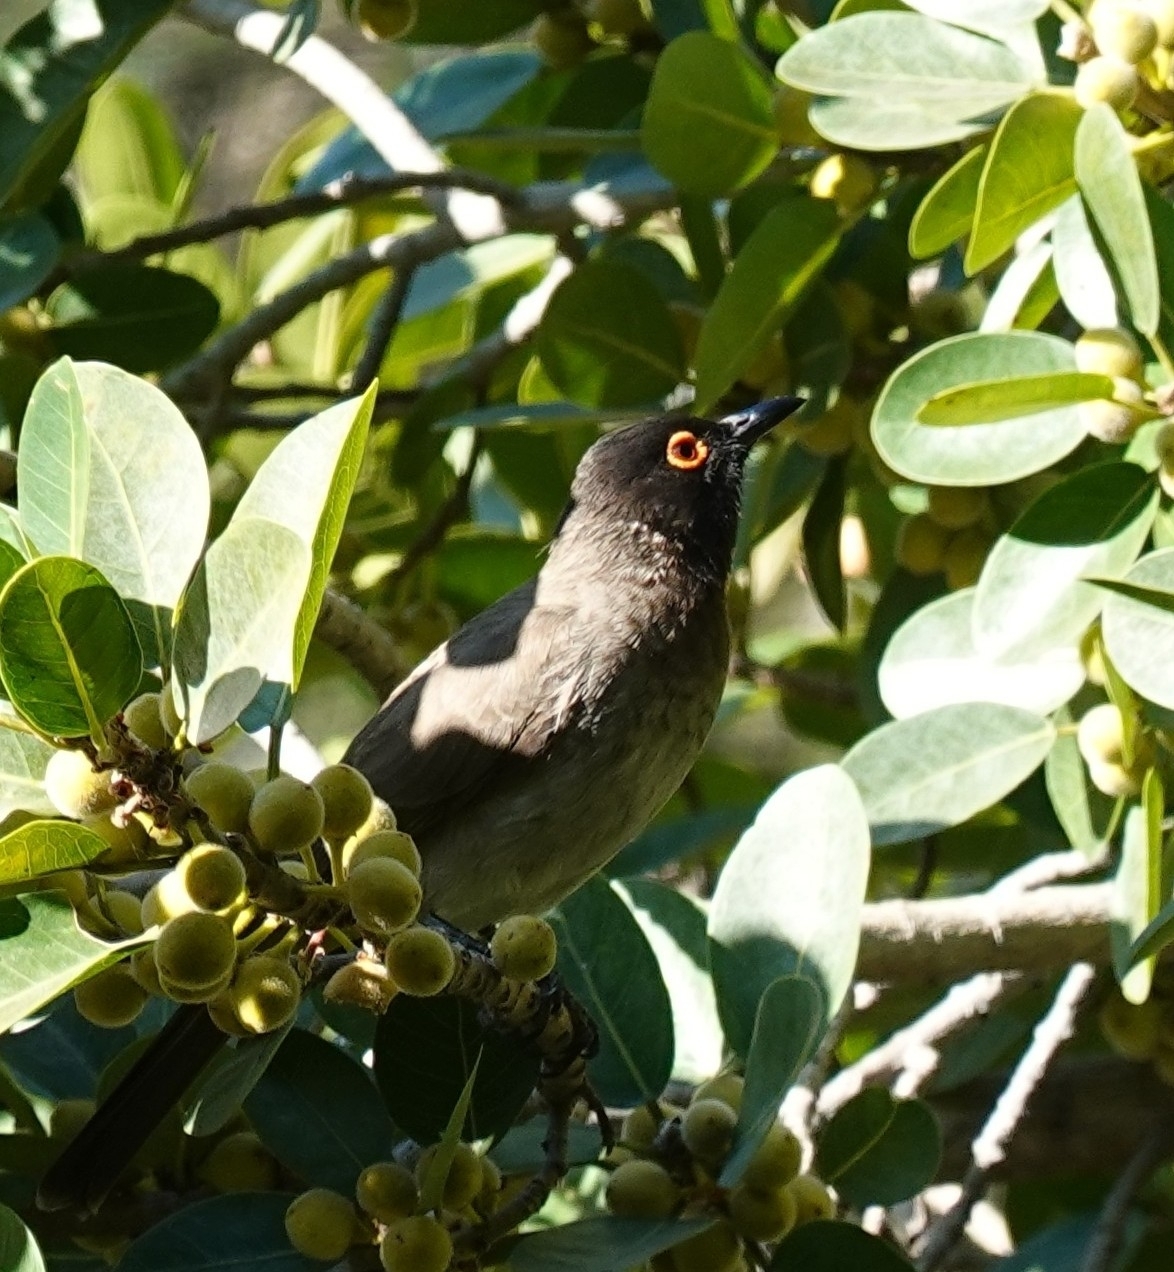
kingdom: Animalia
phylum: Chordata
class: Aves
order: Passeriformes
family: Pycnonotidae
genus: Pycnonotus
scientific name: Pycnonotus nigricans
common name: African red-eyed bulbul
